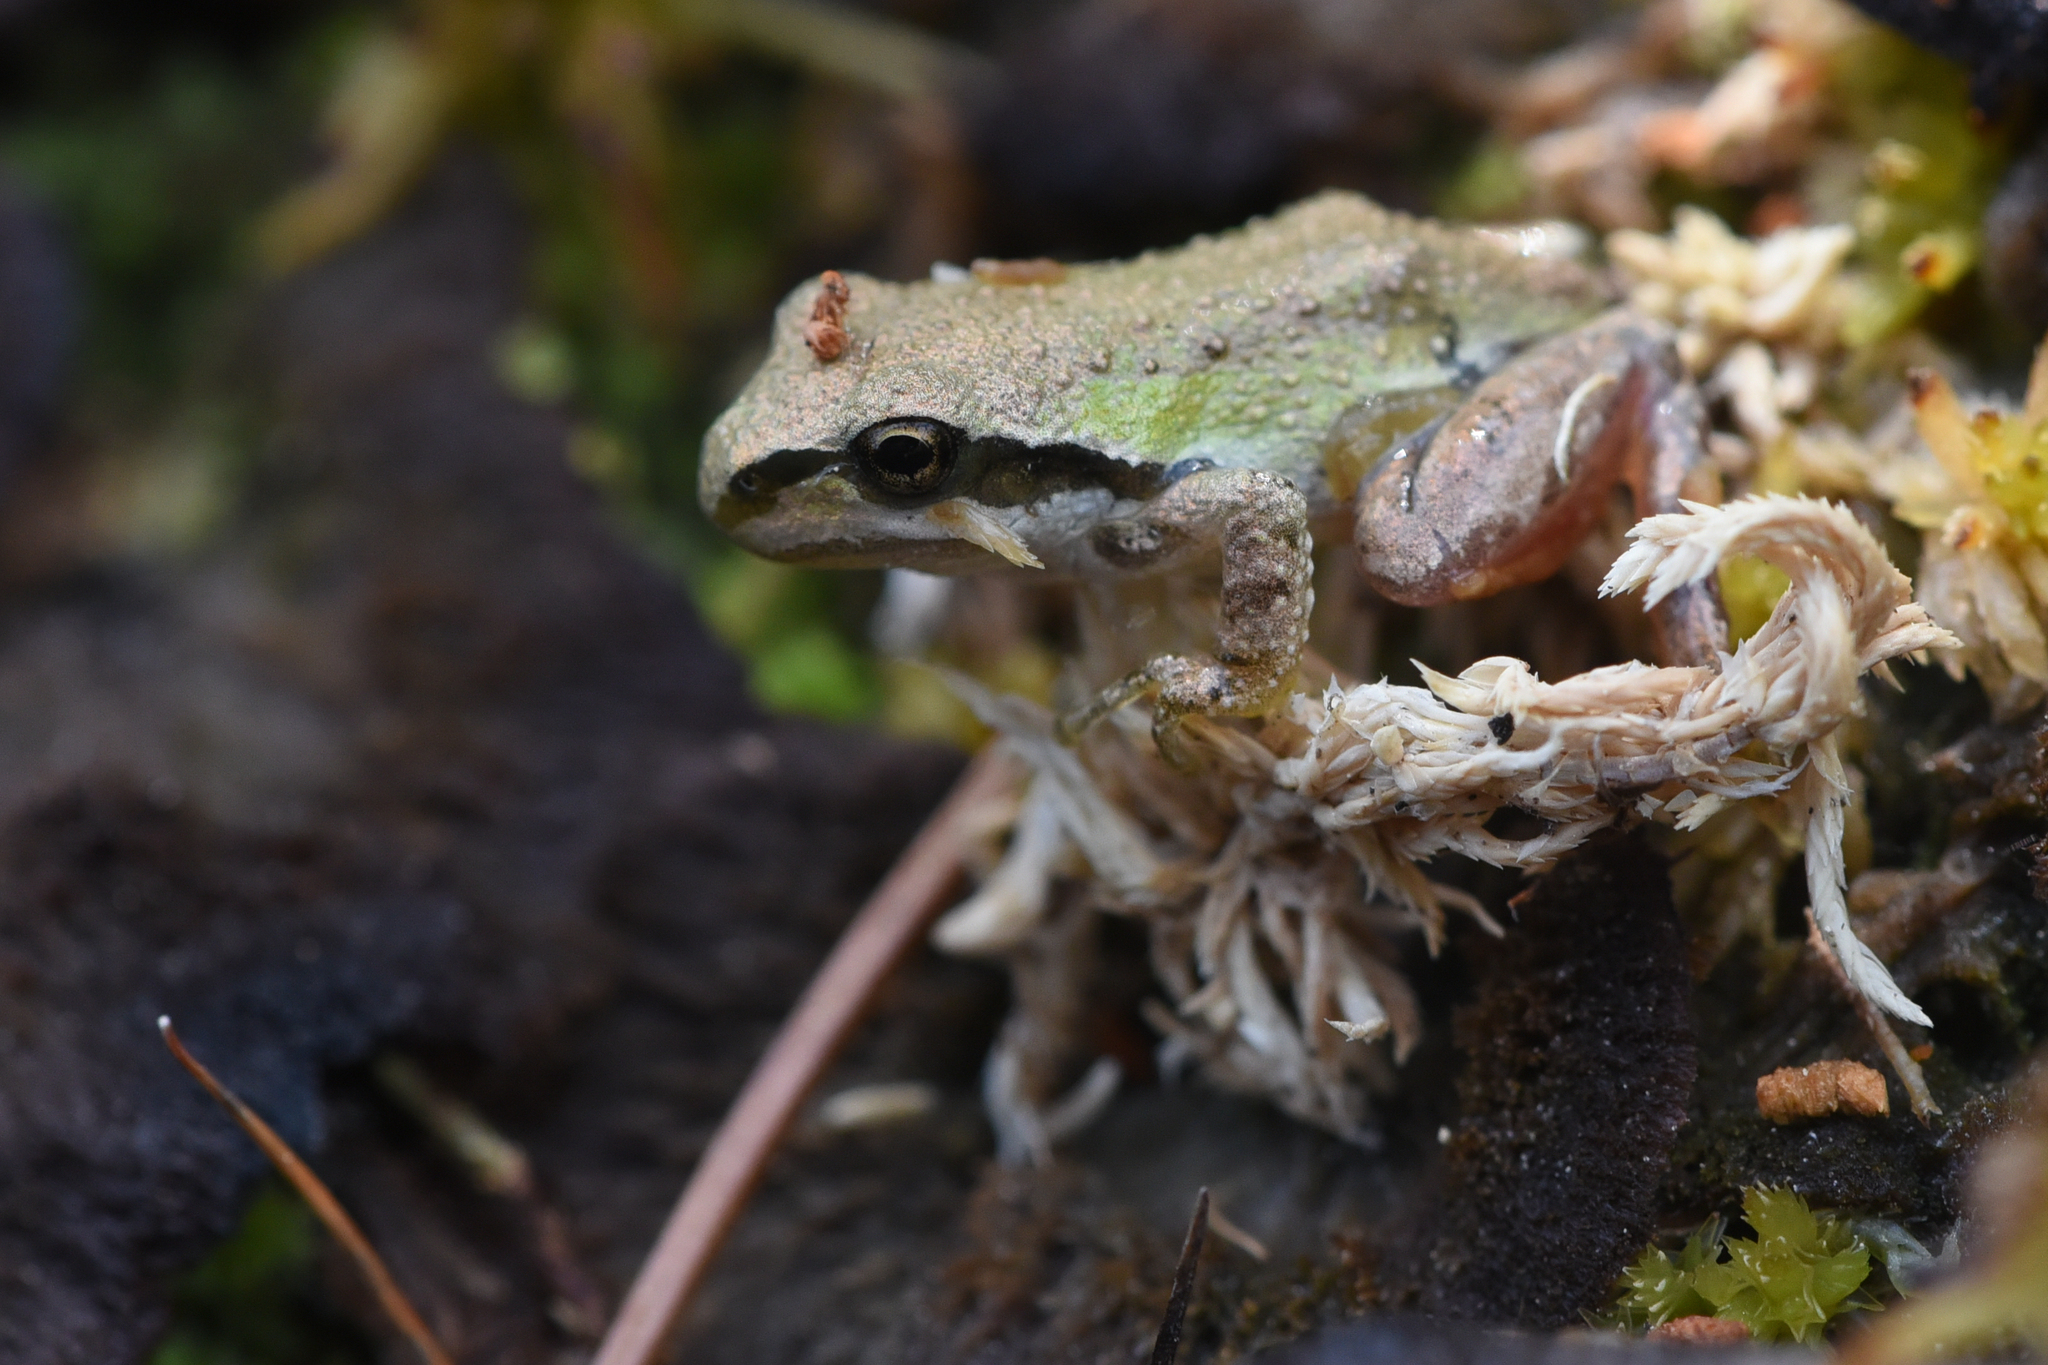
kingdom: Animalia
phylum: Chordata
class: Amphibia
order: Anura
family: Hylidae
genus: Pseudacris
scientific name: Pseudacris regilla
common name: Pacific chorus frog
